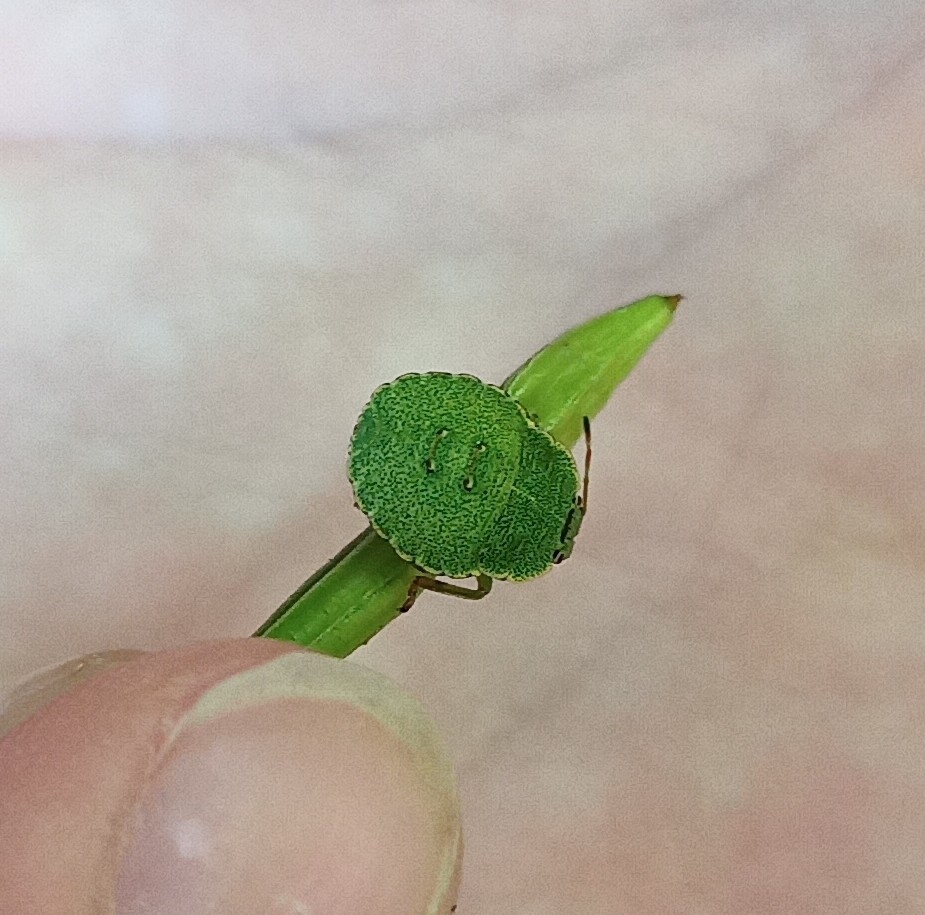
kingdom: Animalia
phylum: Arthropoda
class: Insecta
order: Hemiptera
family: Pentatomidae
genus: Palomena
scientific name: Palomena prasina
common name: Green shieldbug
